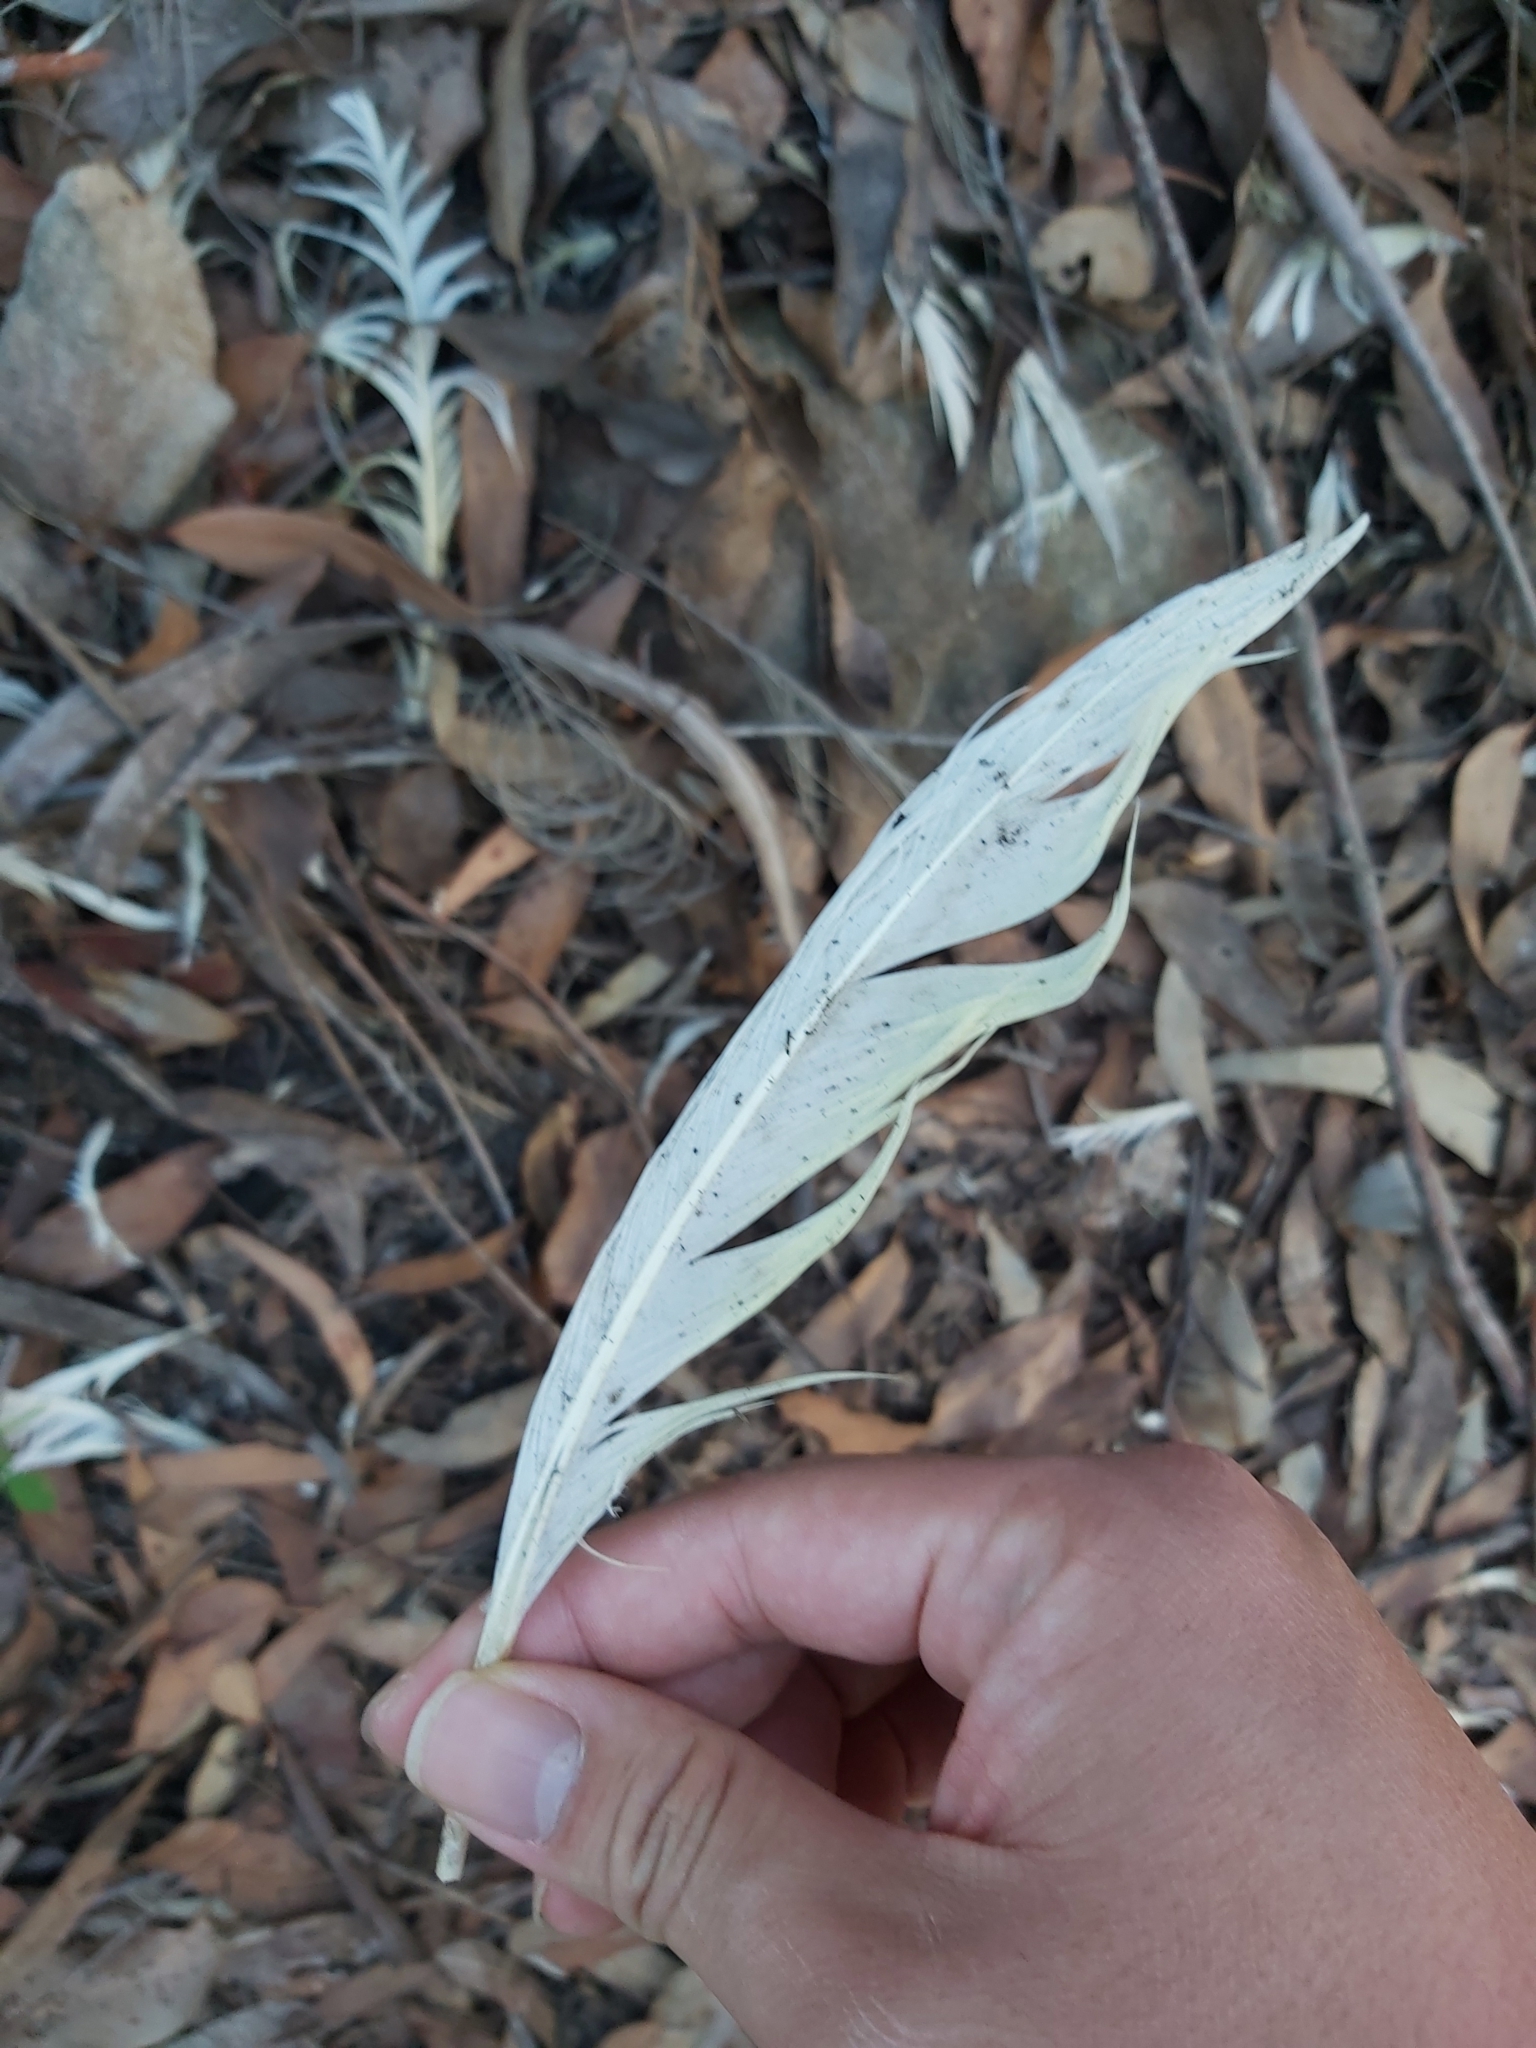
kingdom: Animalia
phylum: Chordata
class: Aves
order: Psittaciformes
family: Psittacidae
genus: Cacatua
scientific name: Cacatua galerita
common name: Sulphur-crested cockatoo
